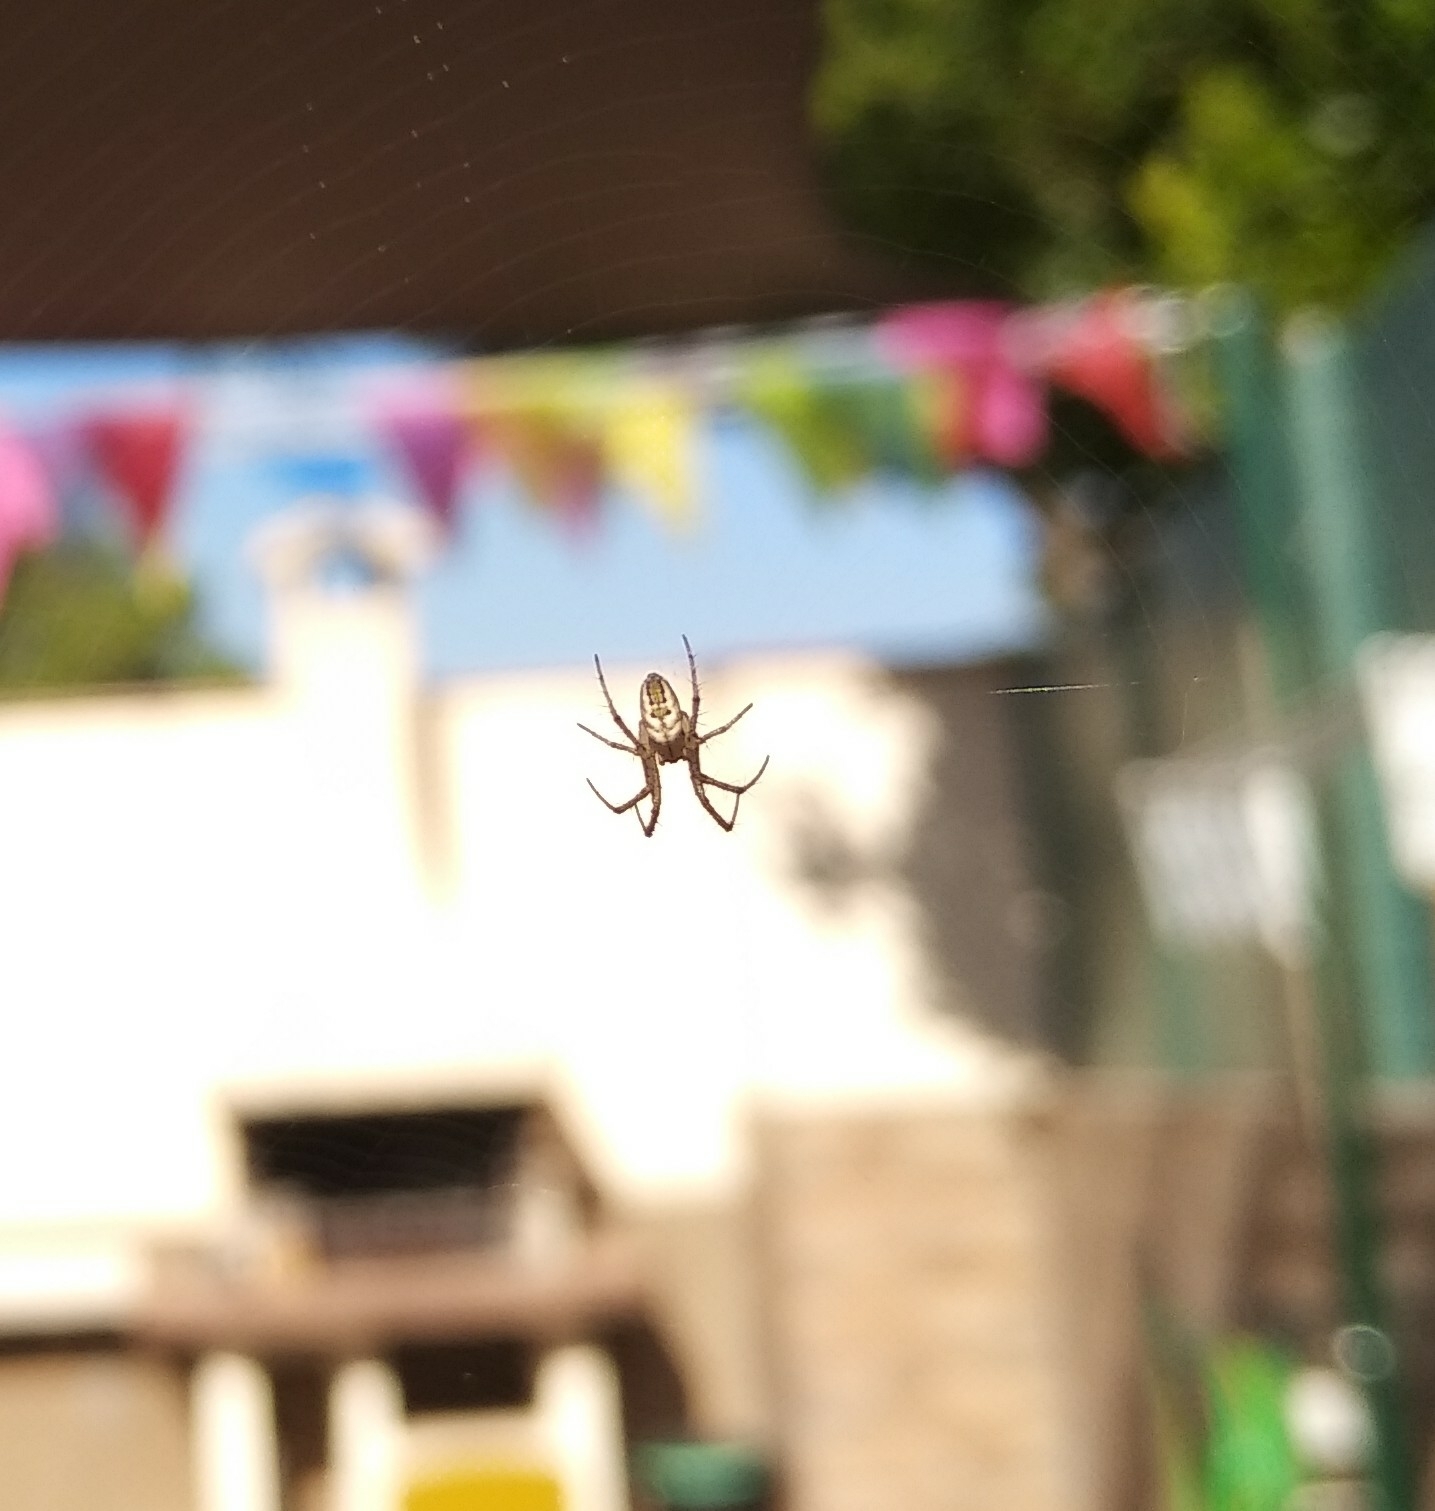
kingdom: Animalia
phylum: Arthropoda
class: Arachnida
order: Araneae
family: Araneidae
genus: Mangora
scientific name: Mangora acalypha
